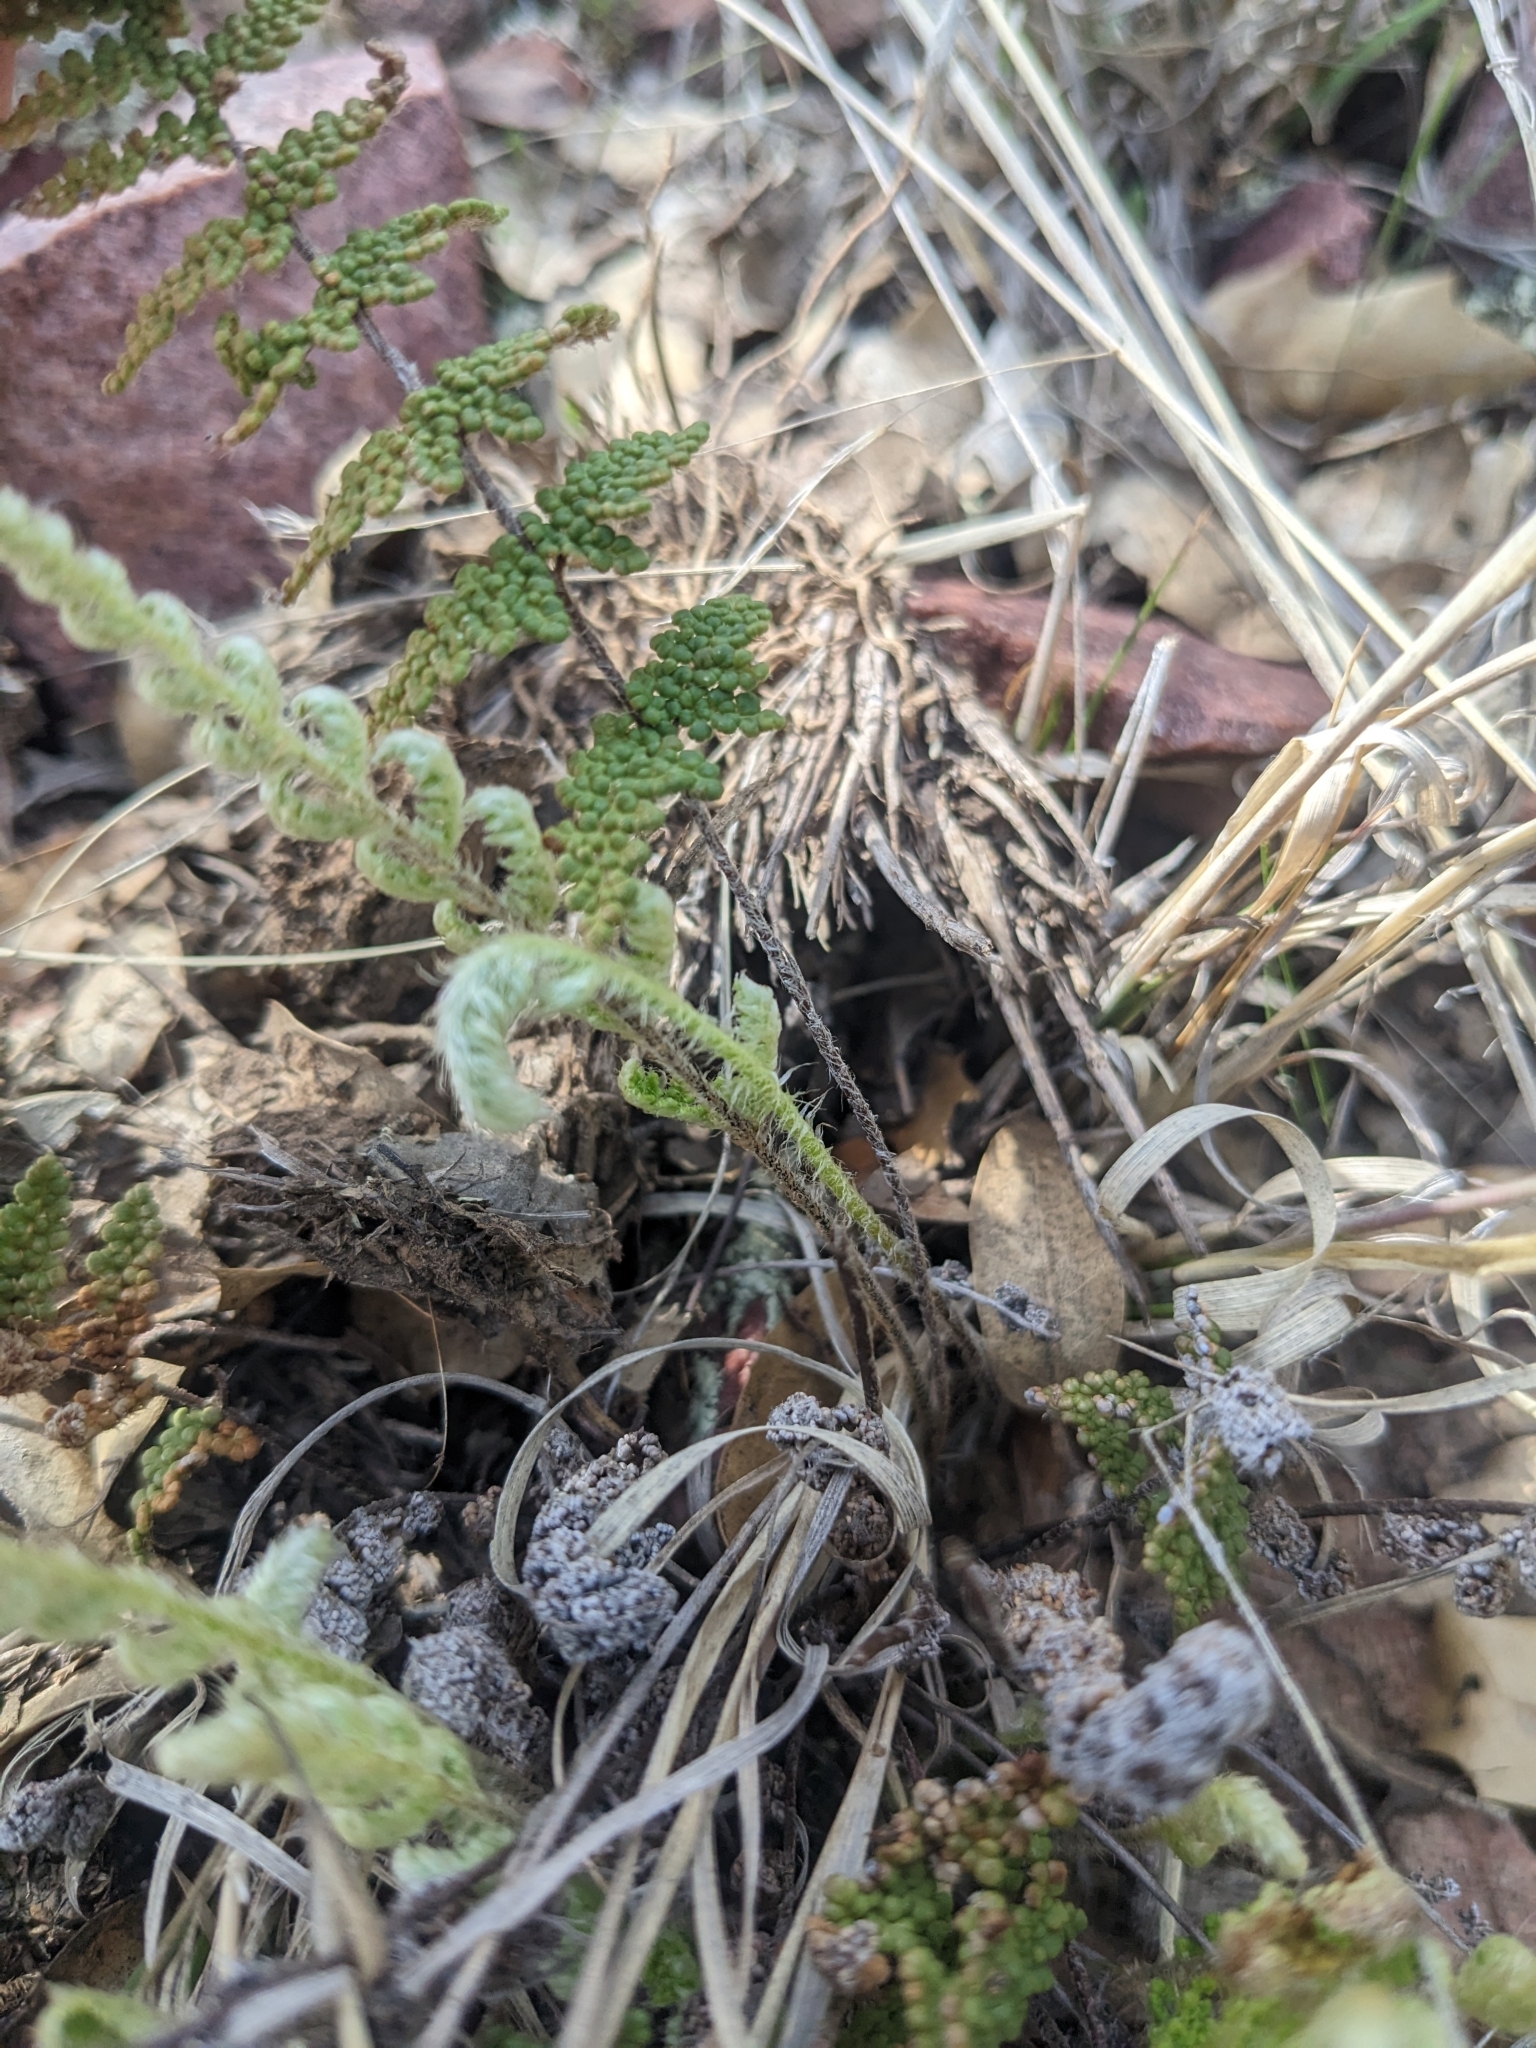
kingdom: Plantae
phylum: Tracheophyta
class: Polypodiopsida
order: Polypodiales
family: Pteridaceae
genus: Myriopteris
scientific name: Myriopteris fendleri
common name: Fendler's lip fern
